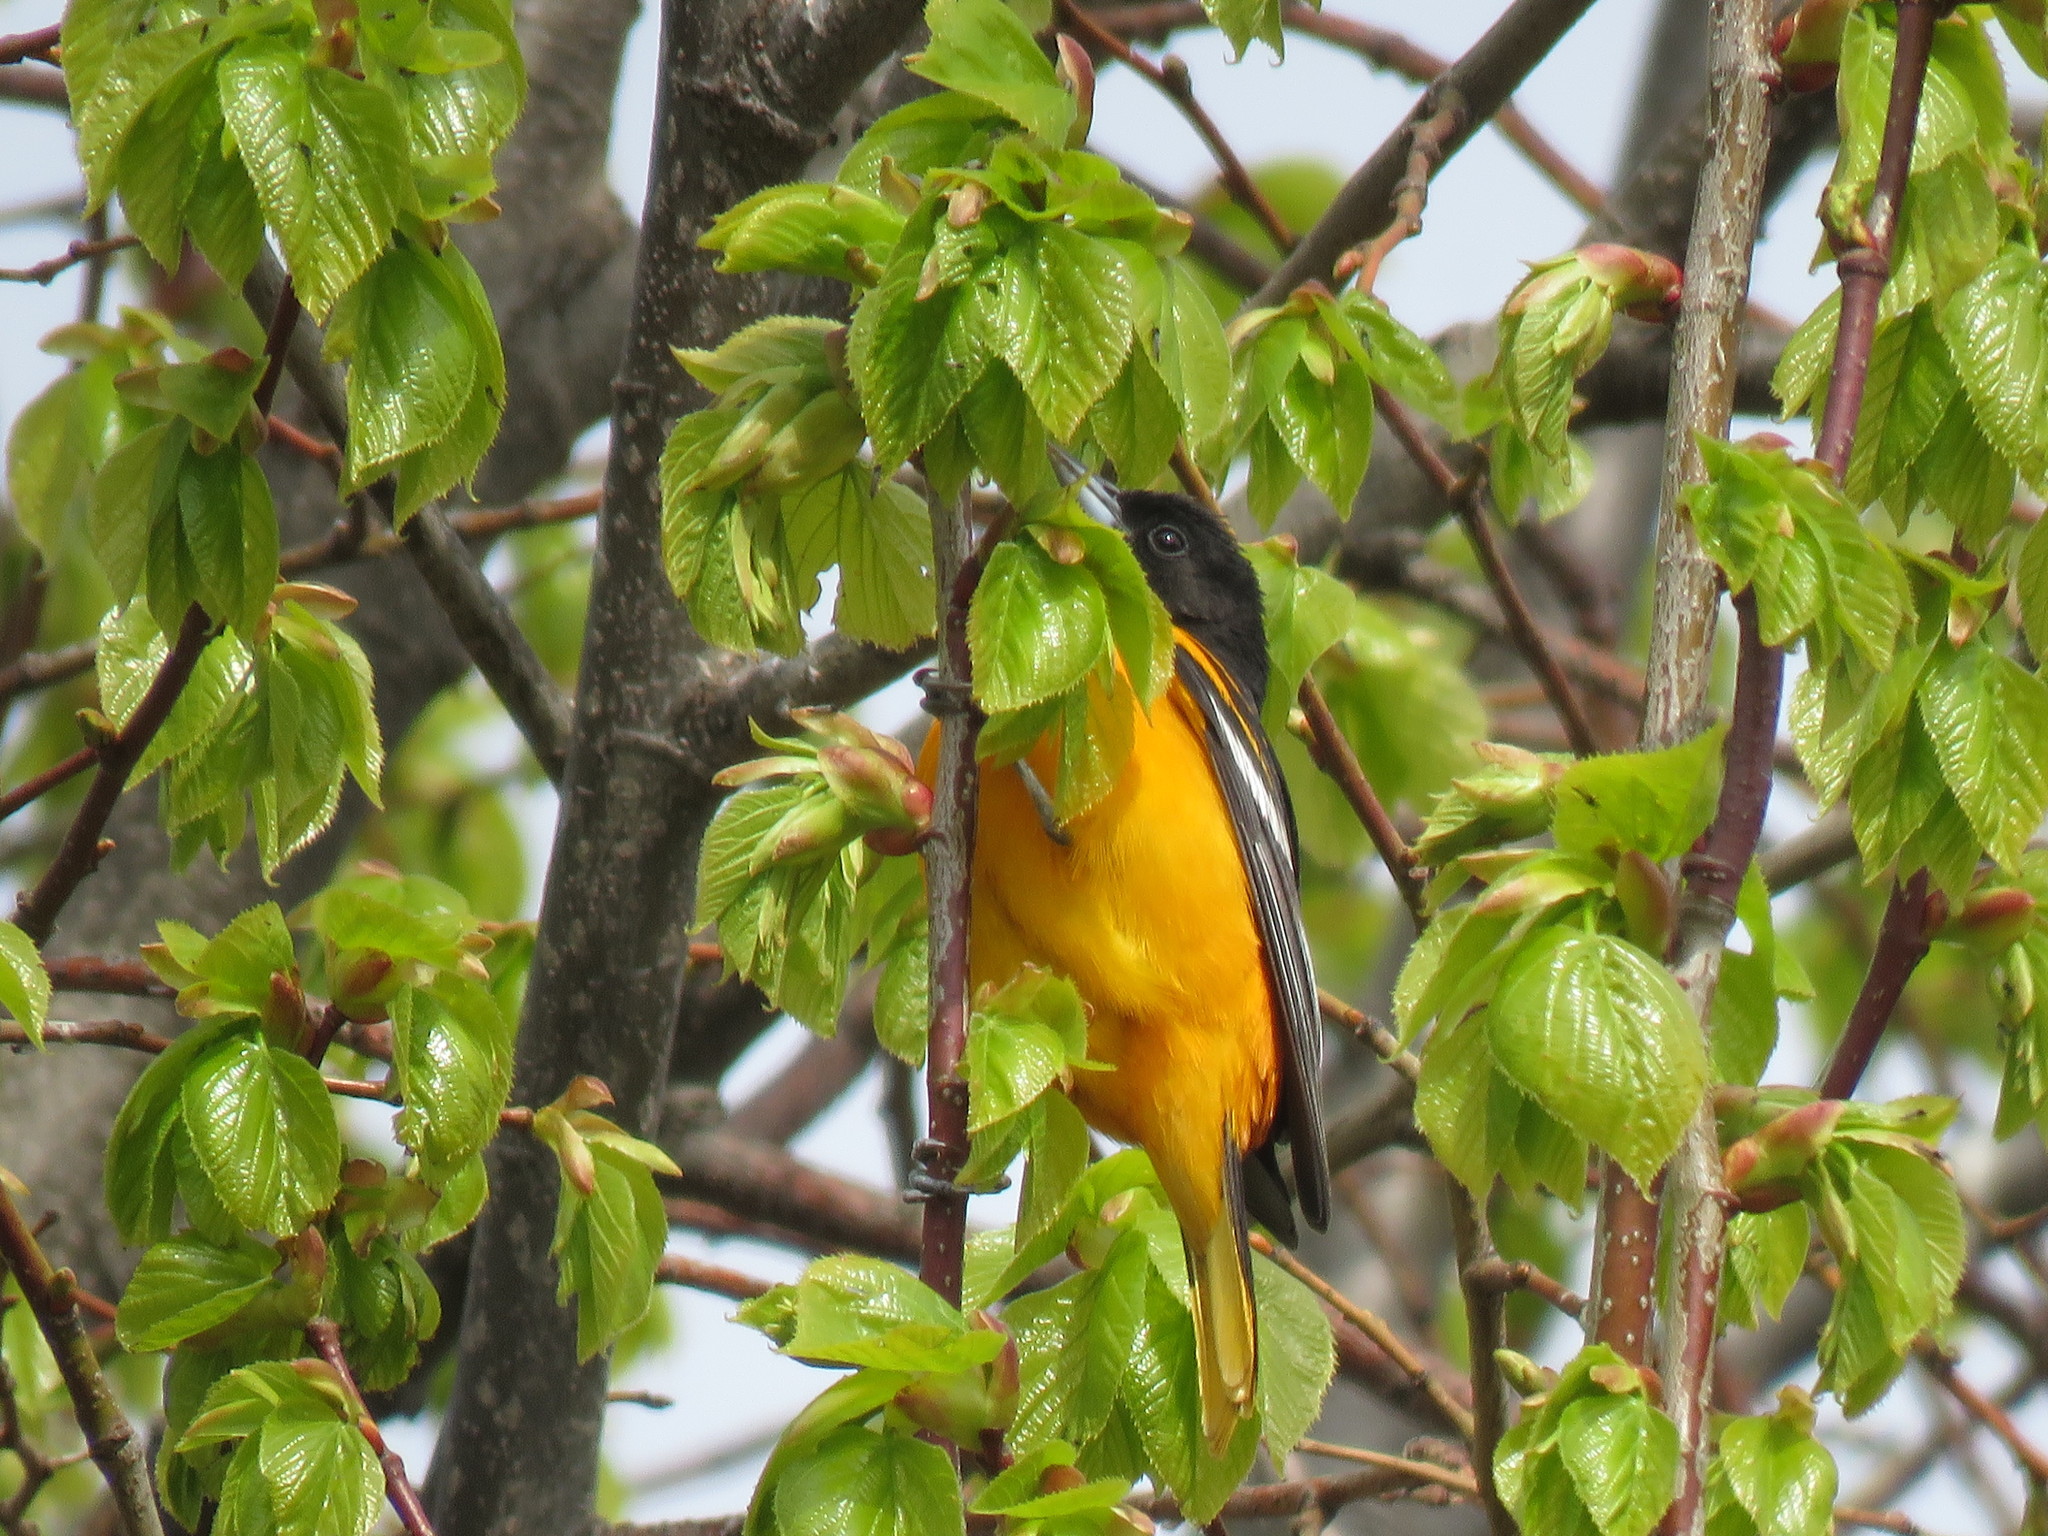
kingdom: Animalia
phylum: Chordata
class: Aves
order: Passeriformes
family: Icteridae
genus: Icterus
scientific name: Icterus galbula
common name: Baltimore oriole
